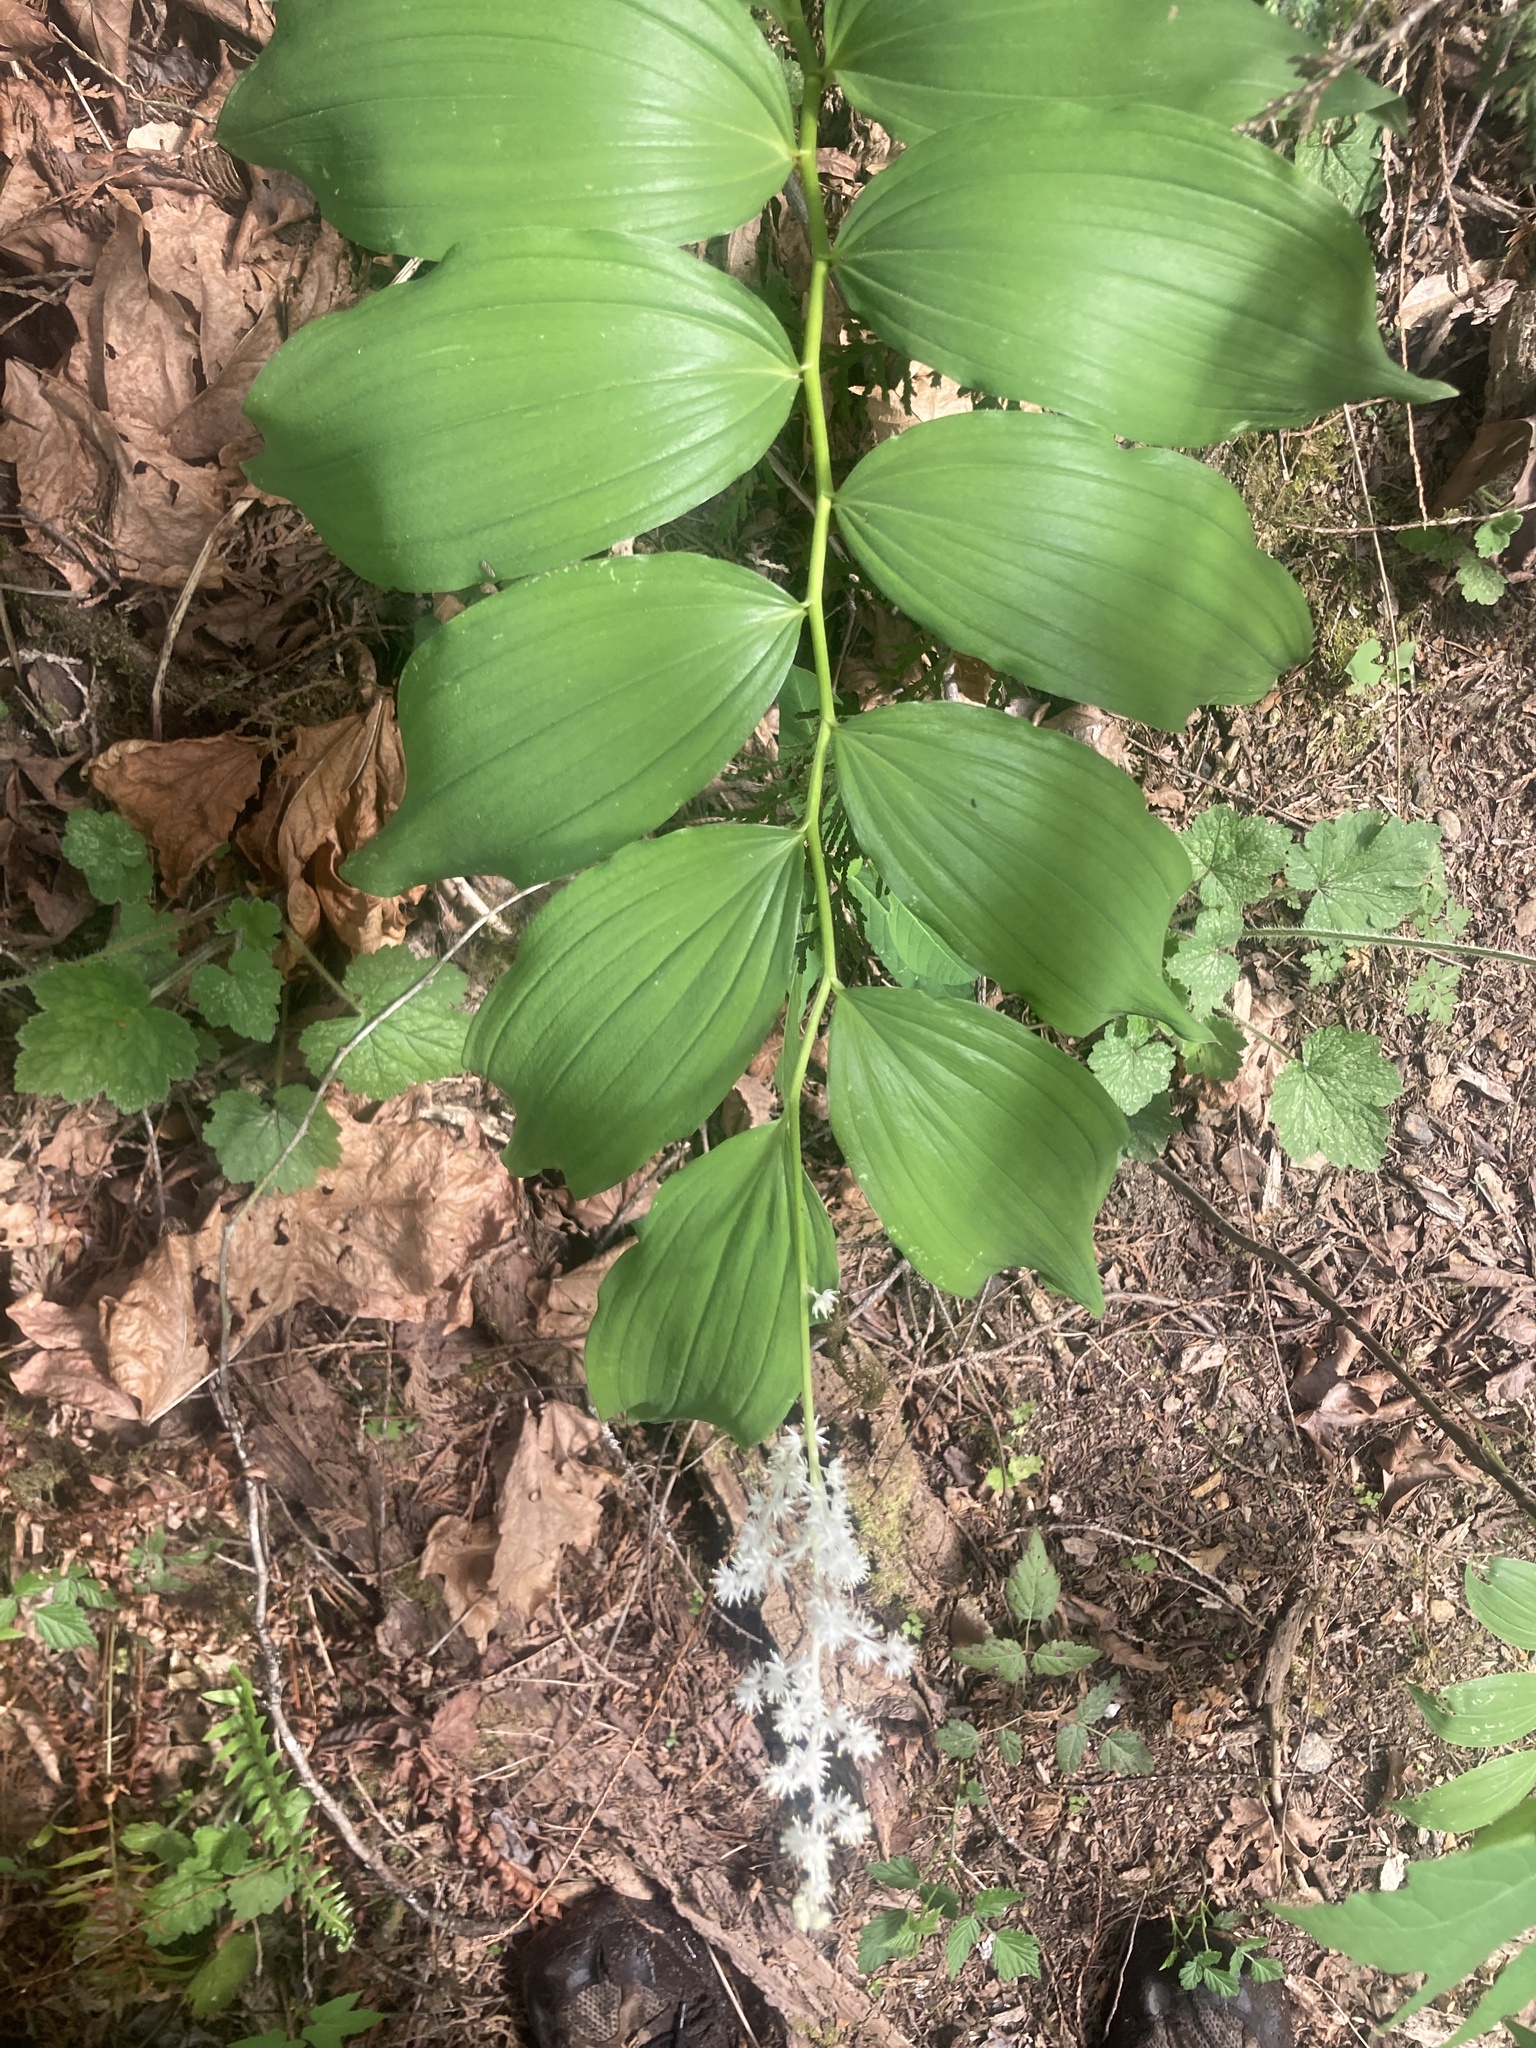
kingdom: Plantae
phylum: Tracheophyta
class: Liliopsida
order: Asparagales
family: Asparagaceae
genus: Maianthemum
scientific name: Maianthemum racemosum
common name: False spikenard
